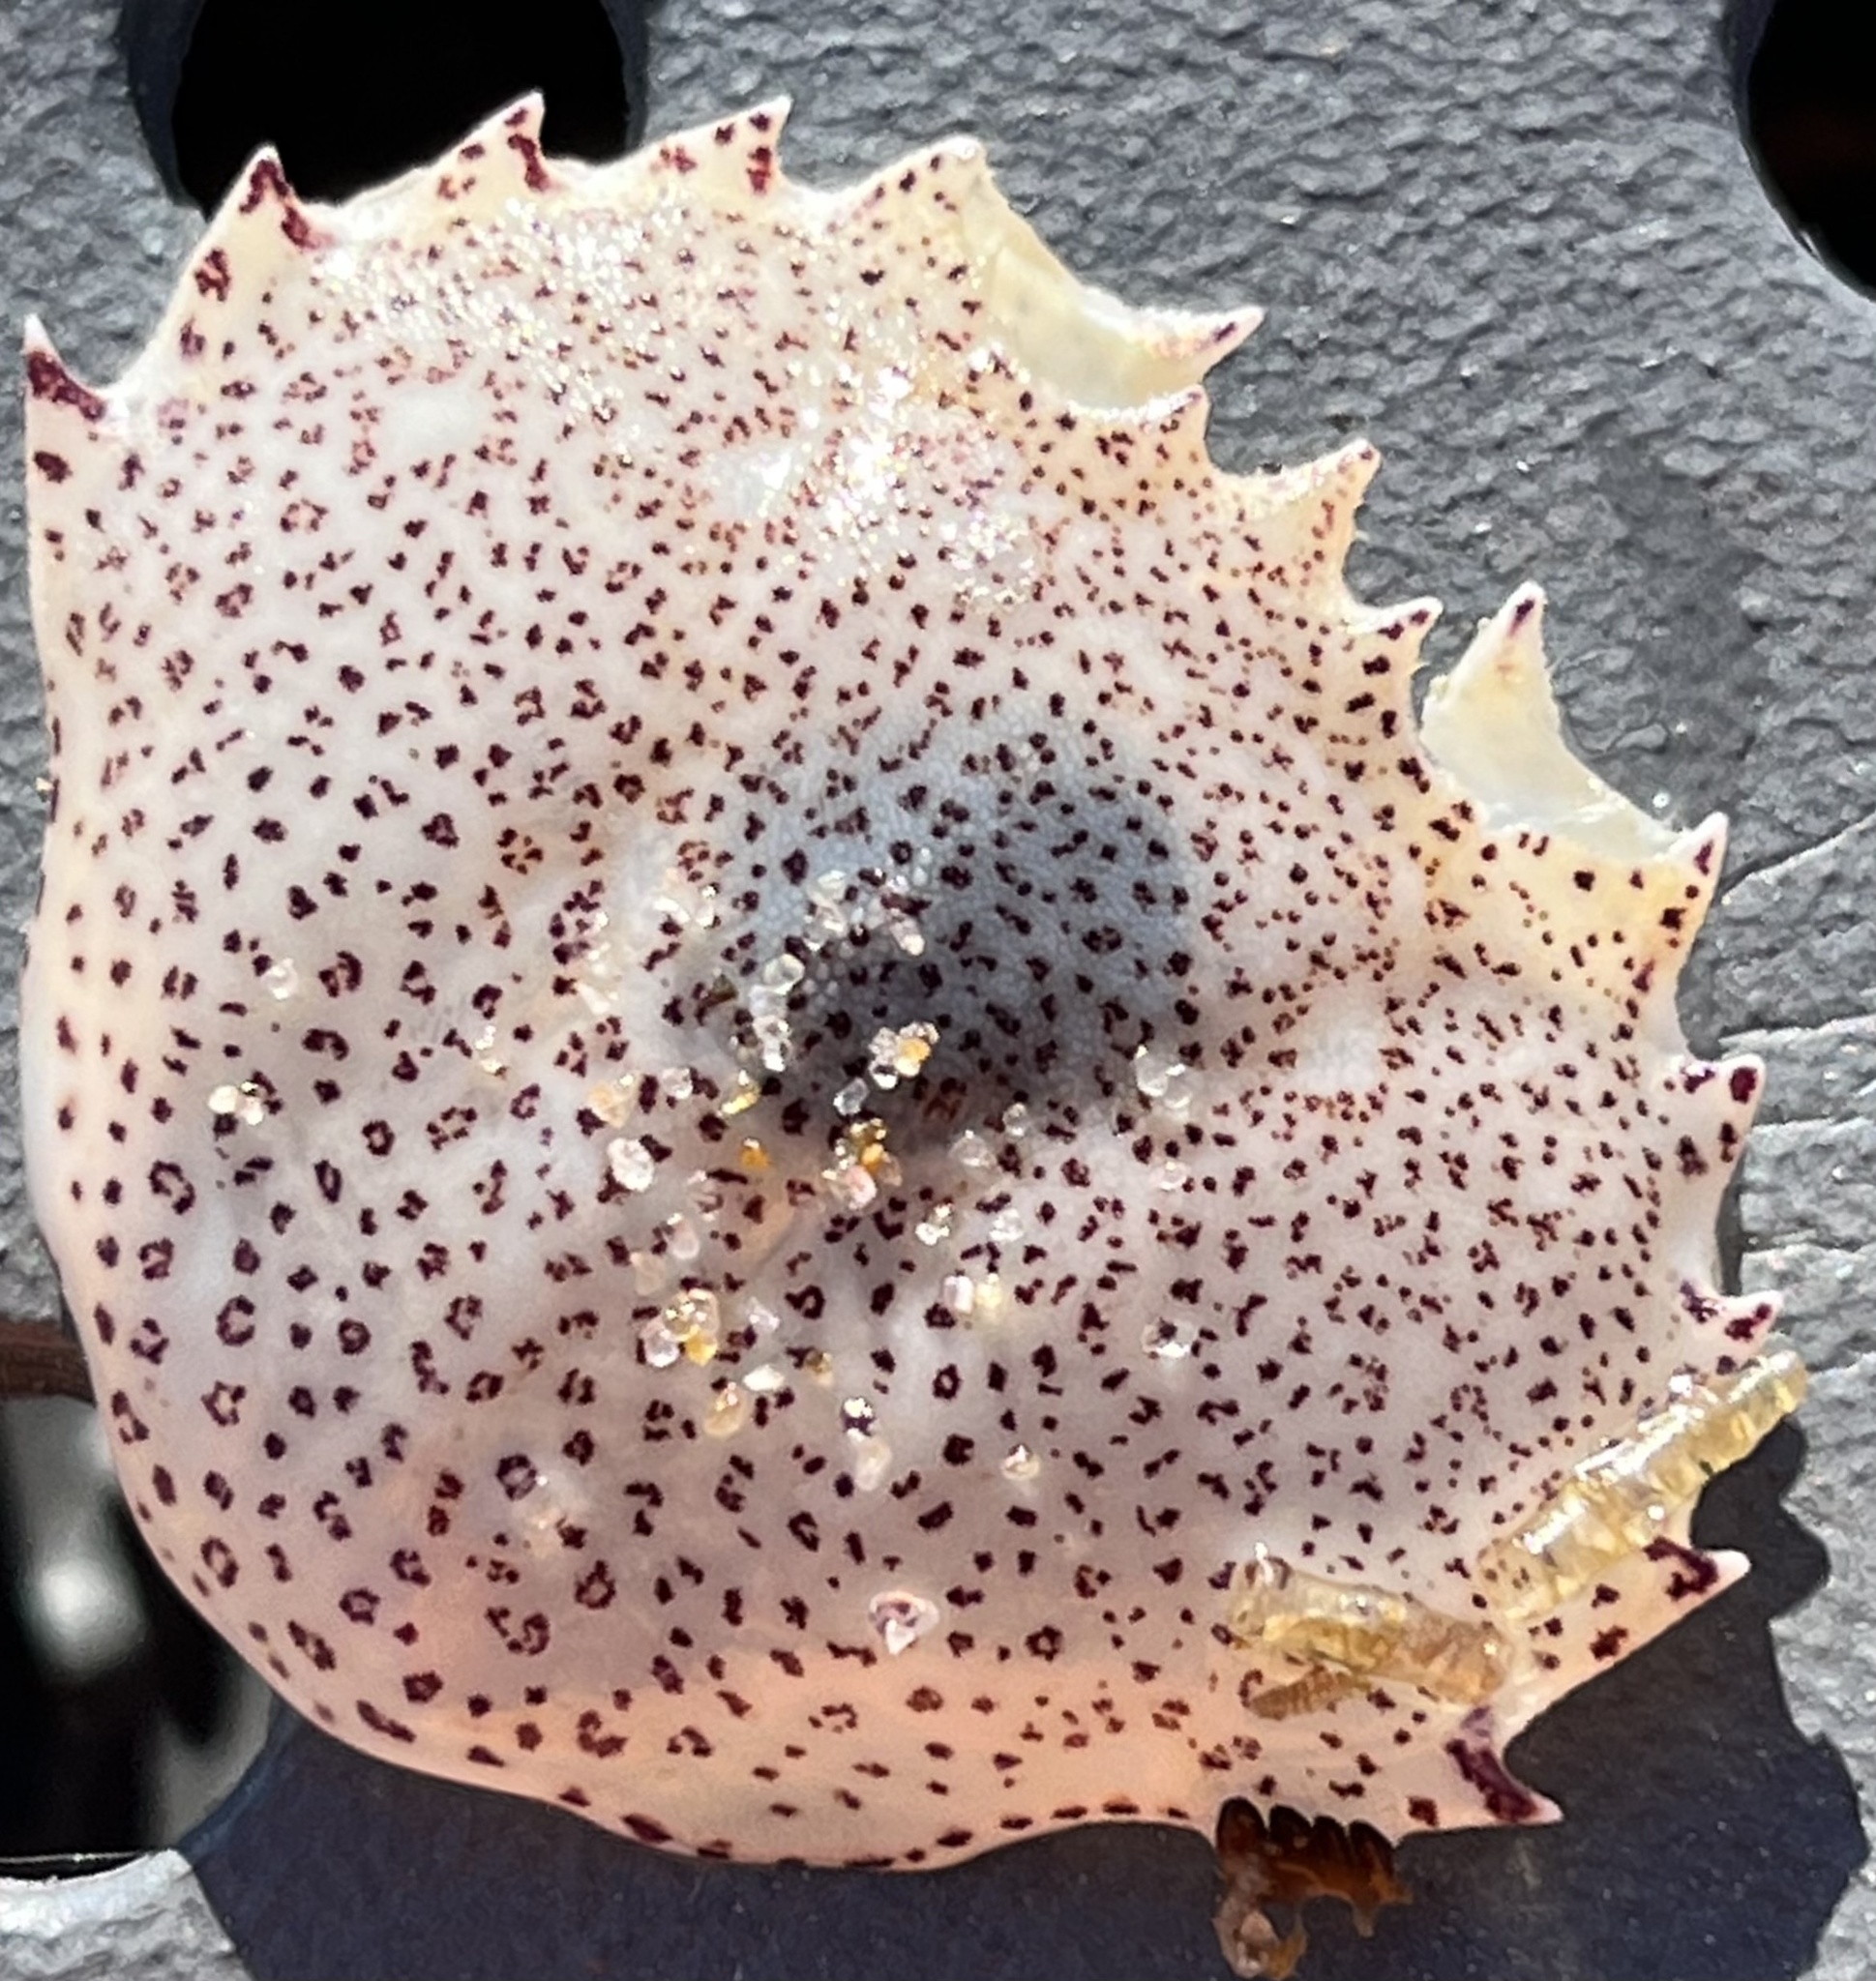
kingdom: Animalia
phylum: Arthropoda
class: Malacostraca
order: Decapoda
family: Ovalipidae
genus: Ovalipes
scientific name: Ovalipes ocellatus
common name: Lady crab
